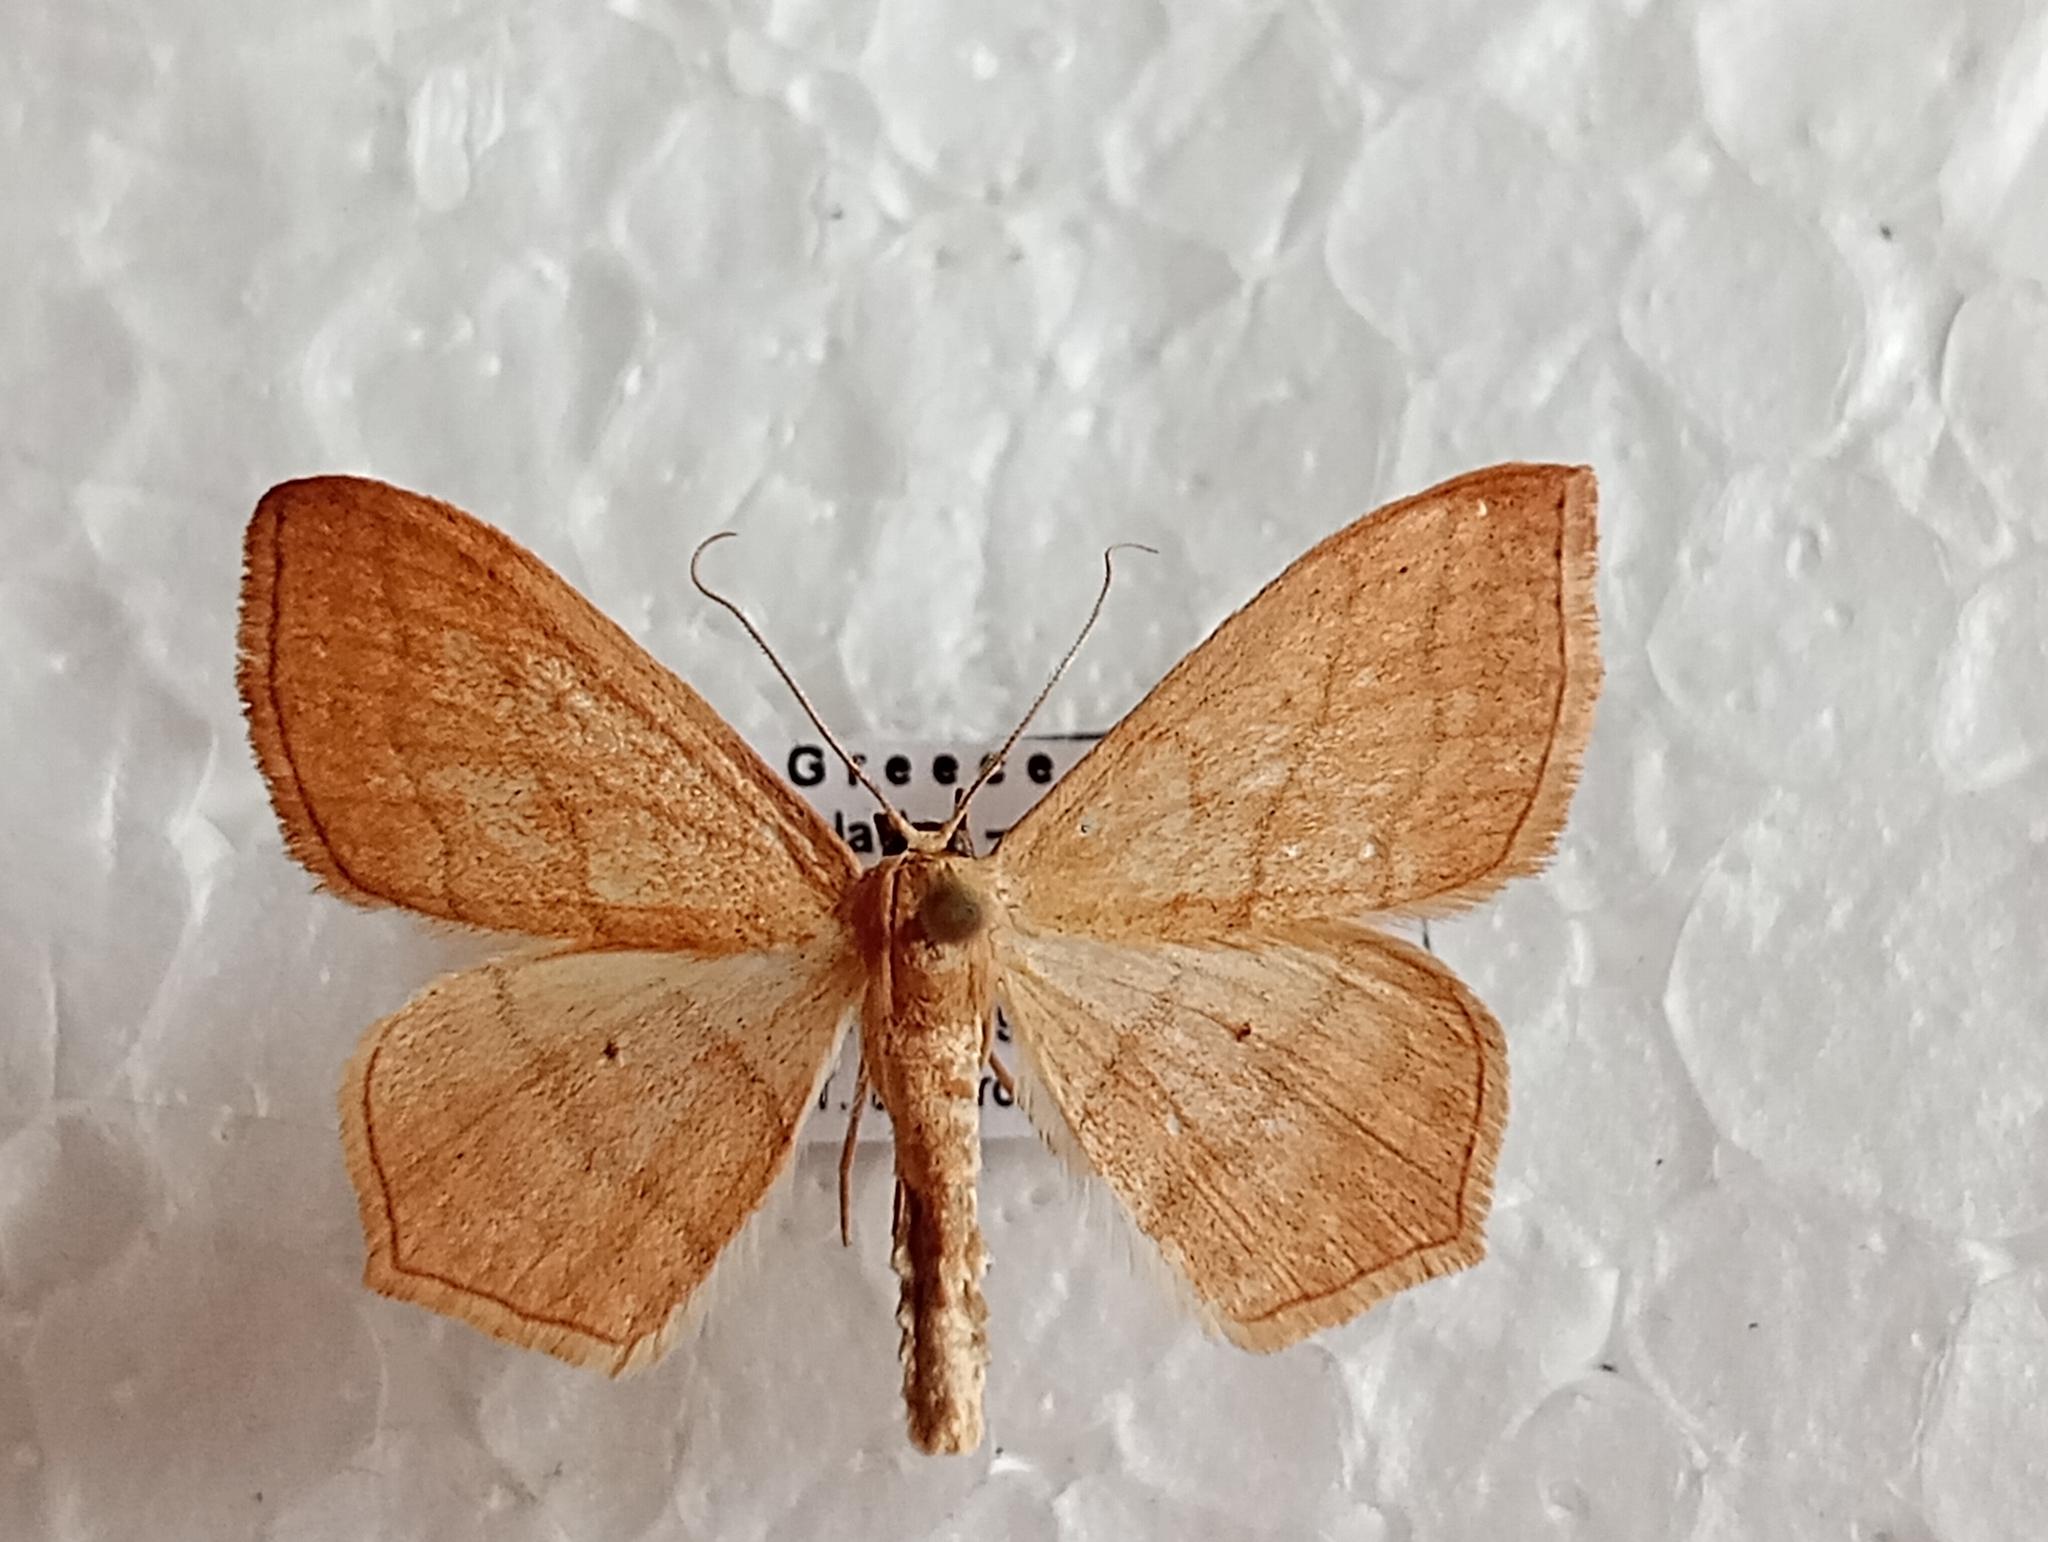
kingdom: Animalia
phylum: Arthropoda
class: Insecta
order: Lepidoptera
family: Geometridae
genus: Scopula
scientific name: Scopula imitaria
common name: Small blood-vein
